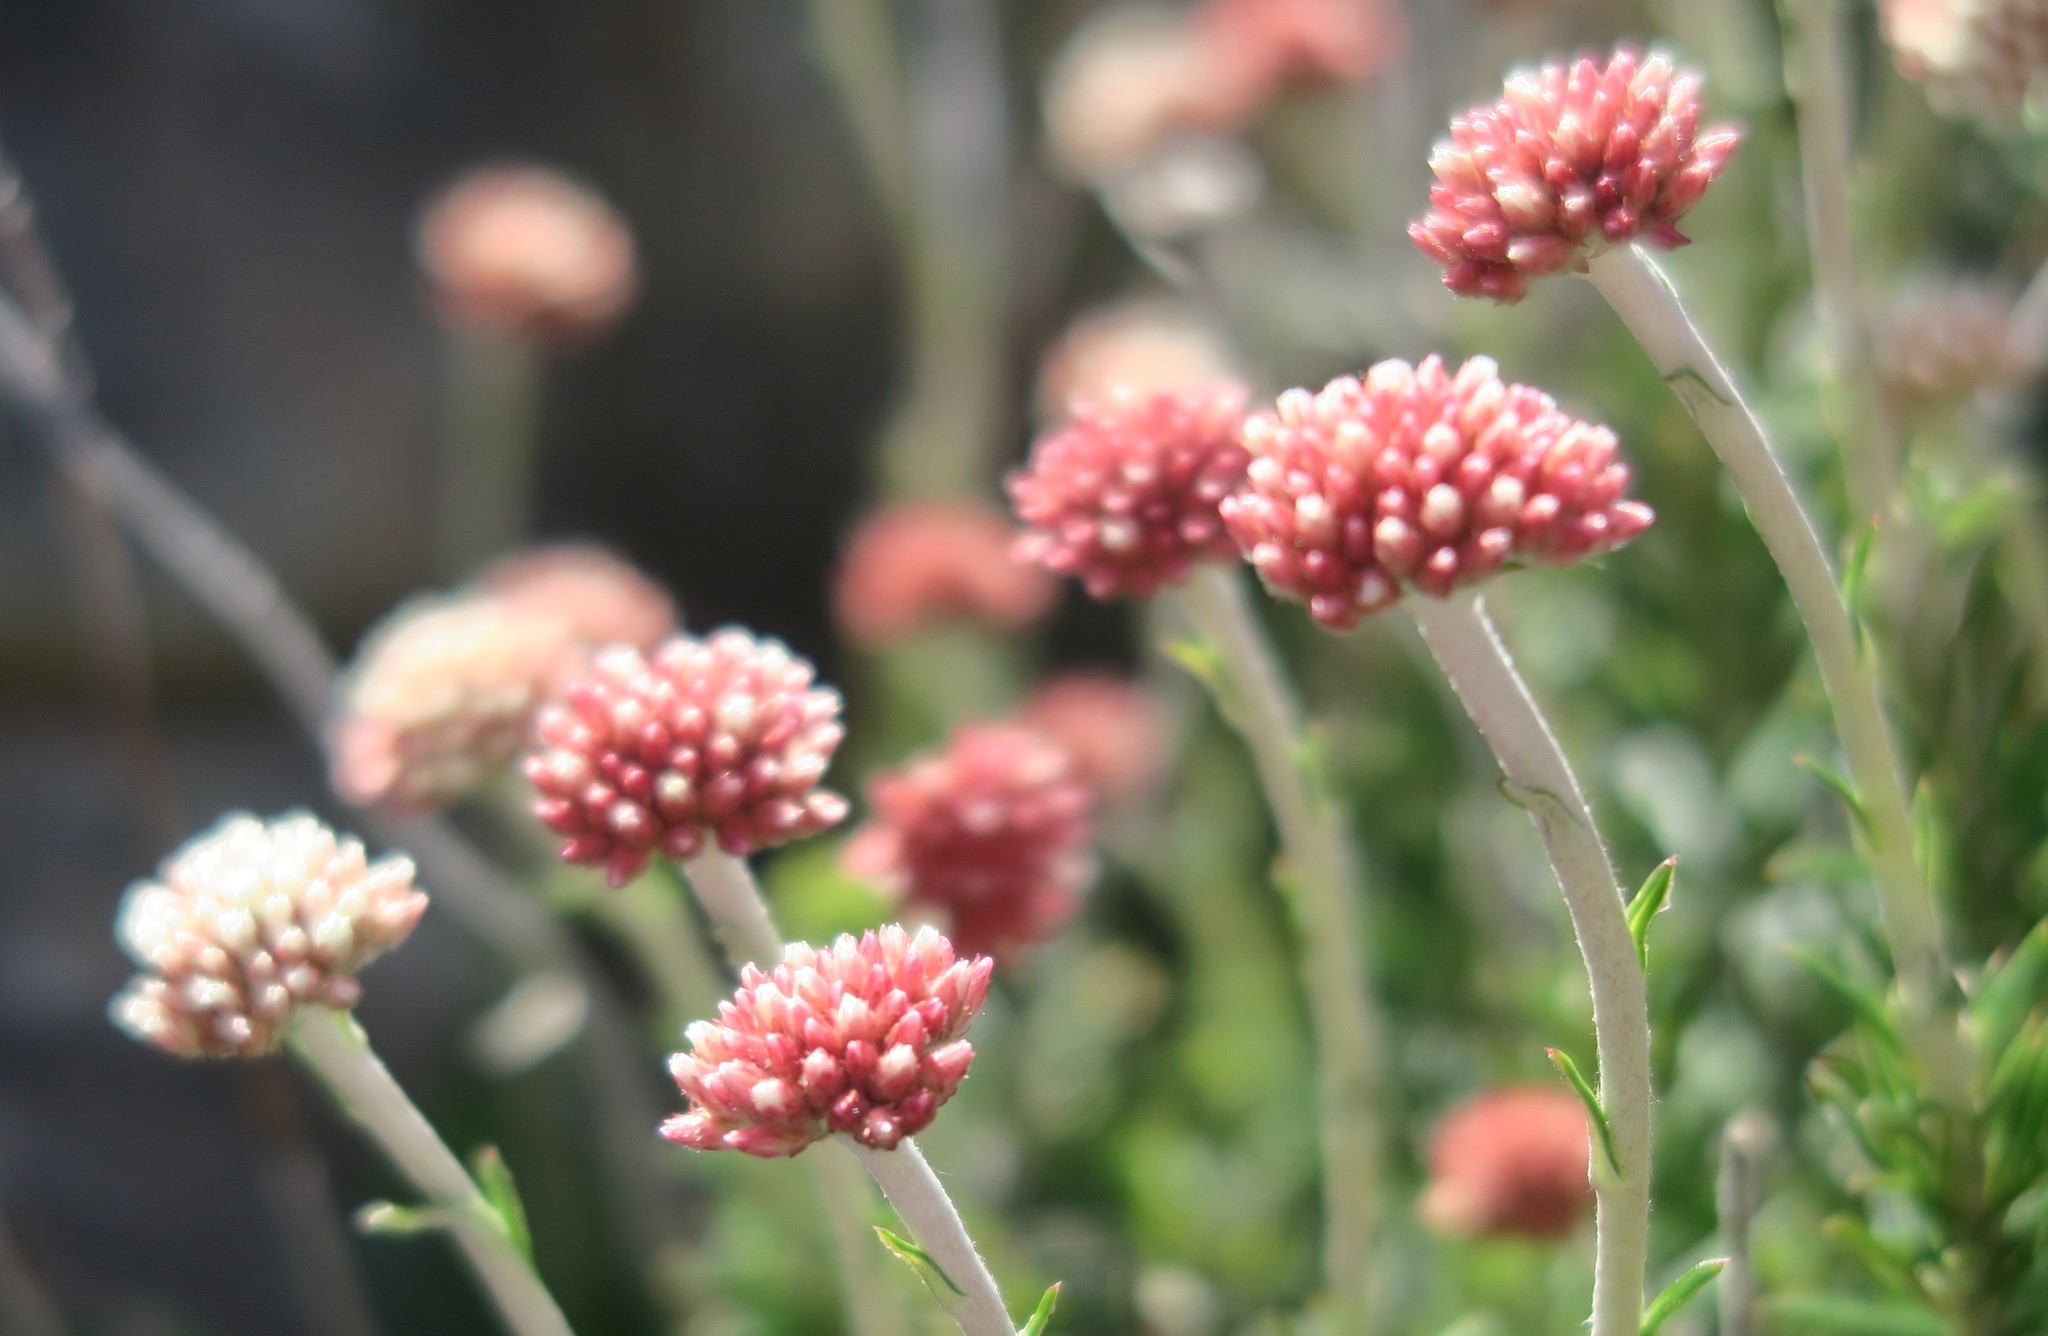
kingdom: Plantae
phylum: Tracheophyta
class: Magnoliopsida
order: Asterales
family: Asteraceae
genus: Anaxeton
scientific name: Anaxeton laeve
